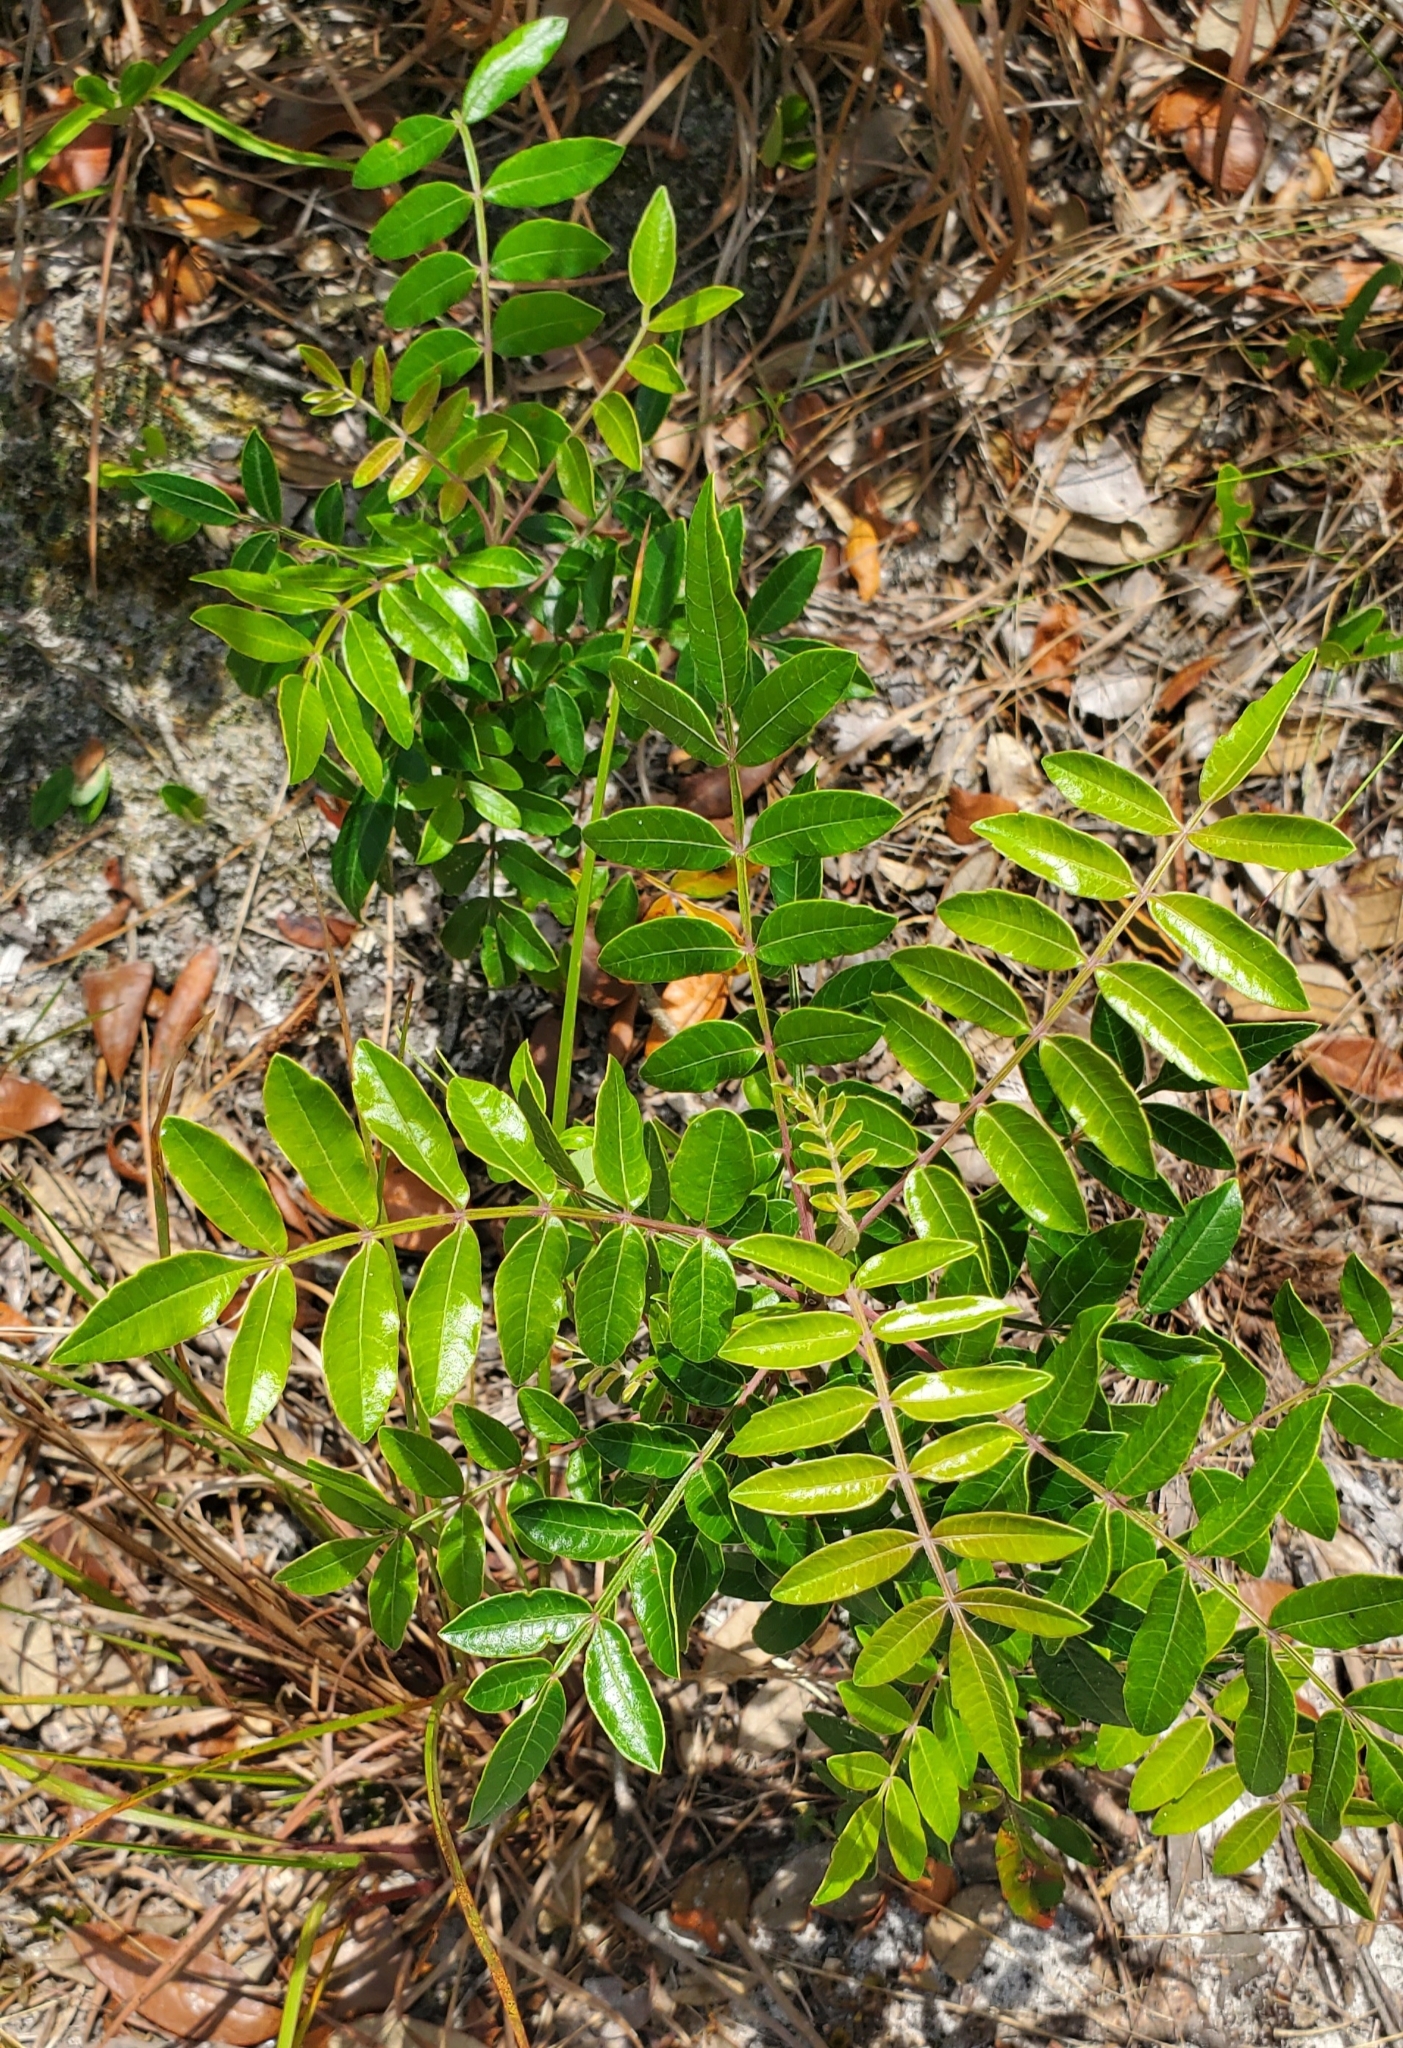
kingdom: Plantae
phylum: Tracheophyta
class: Magnoliopsida
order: Sapindales
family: Anacardiaceae
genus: Rhus
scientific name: Rhus copallina
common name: Shining sumac
